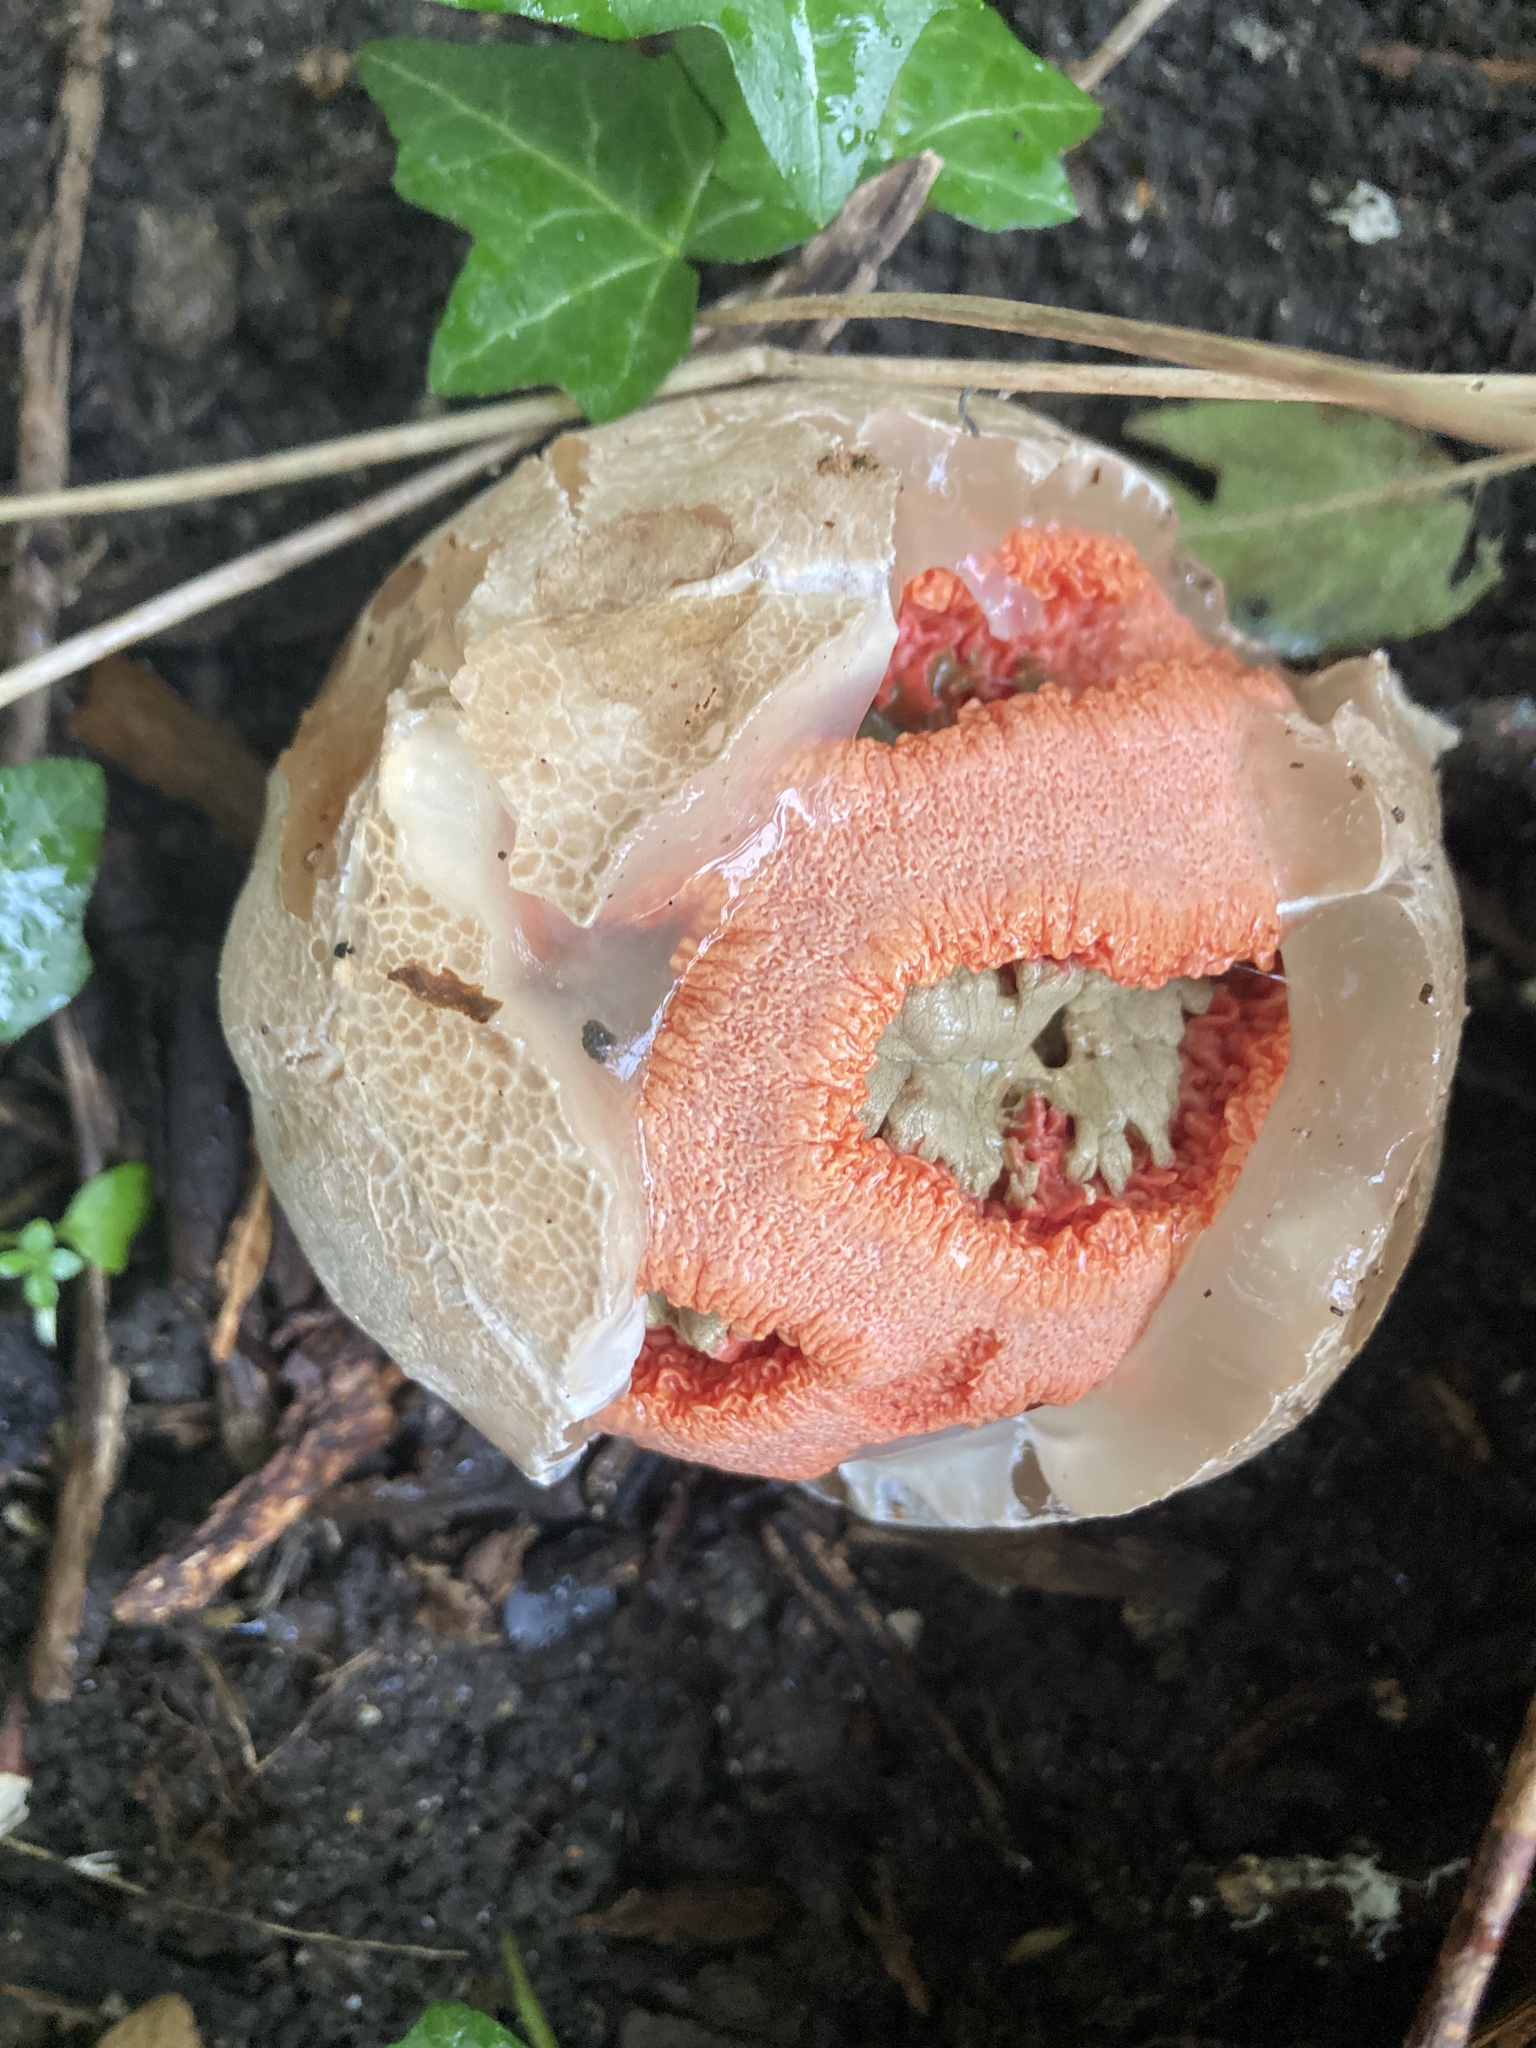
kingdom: Fungi
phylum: Basidiomycota
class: Agaricomycetes
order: Phallales
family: Phallaceae
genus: Clathrus
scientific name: Clathrus ruber
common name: Red cage
